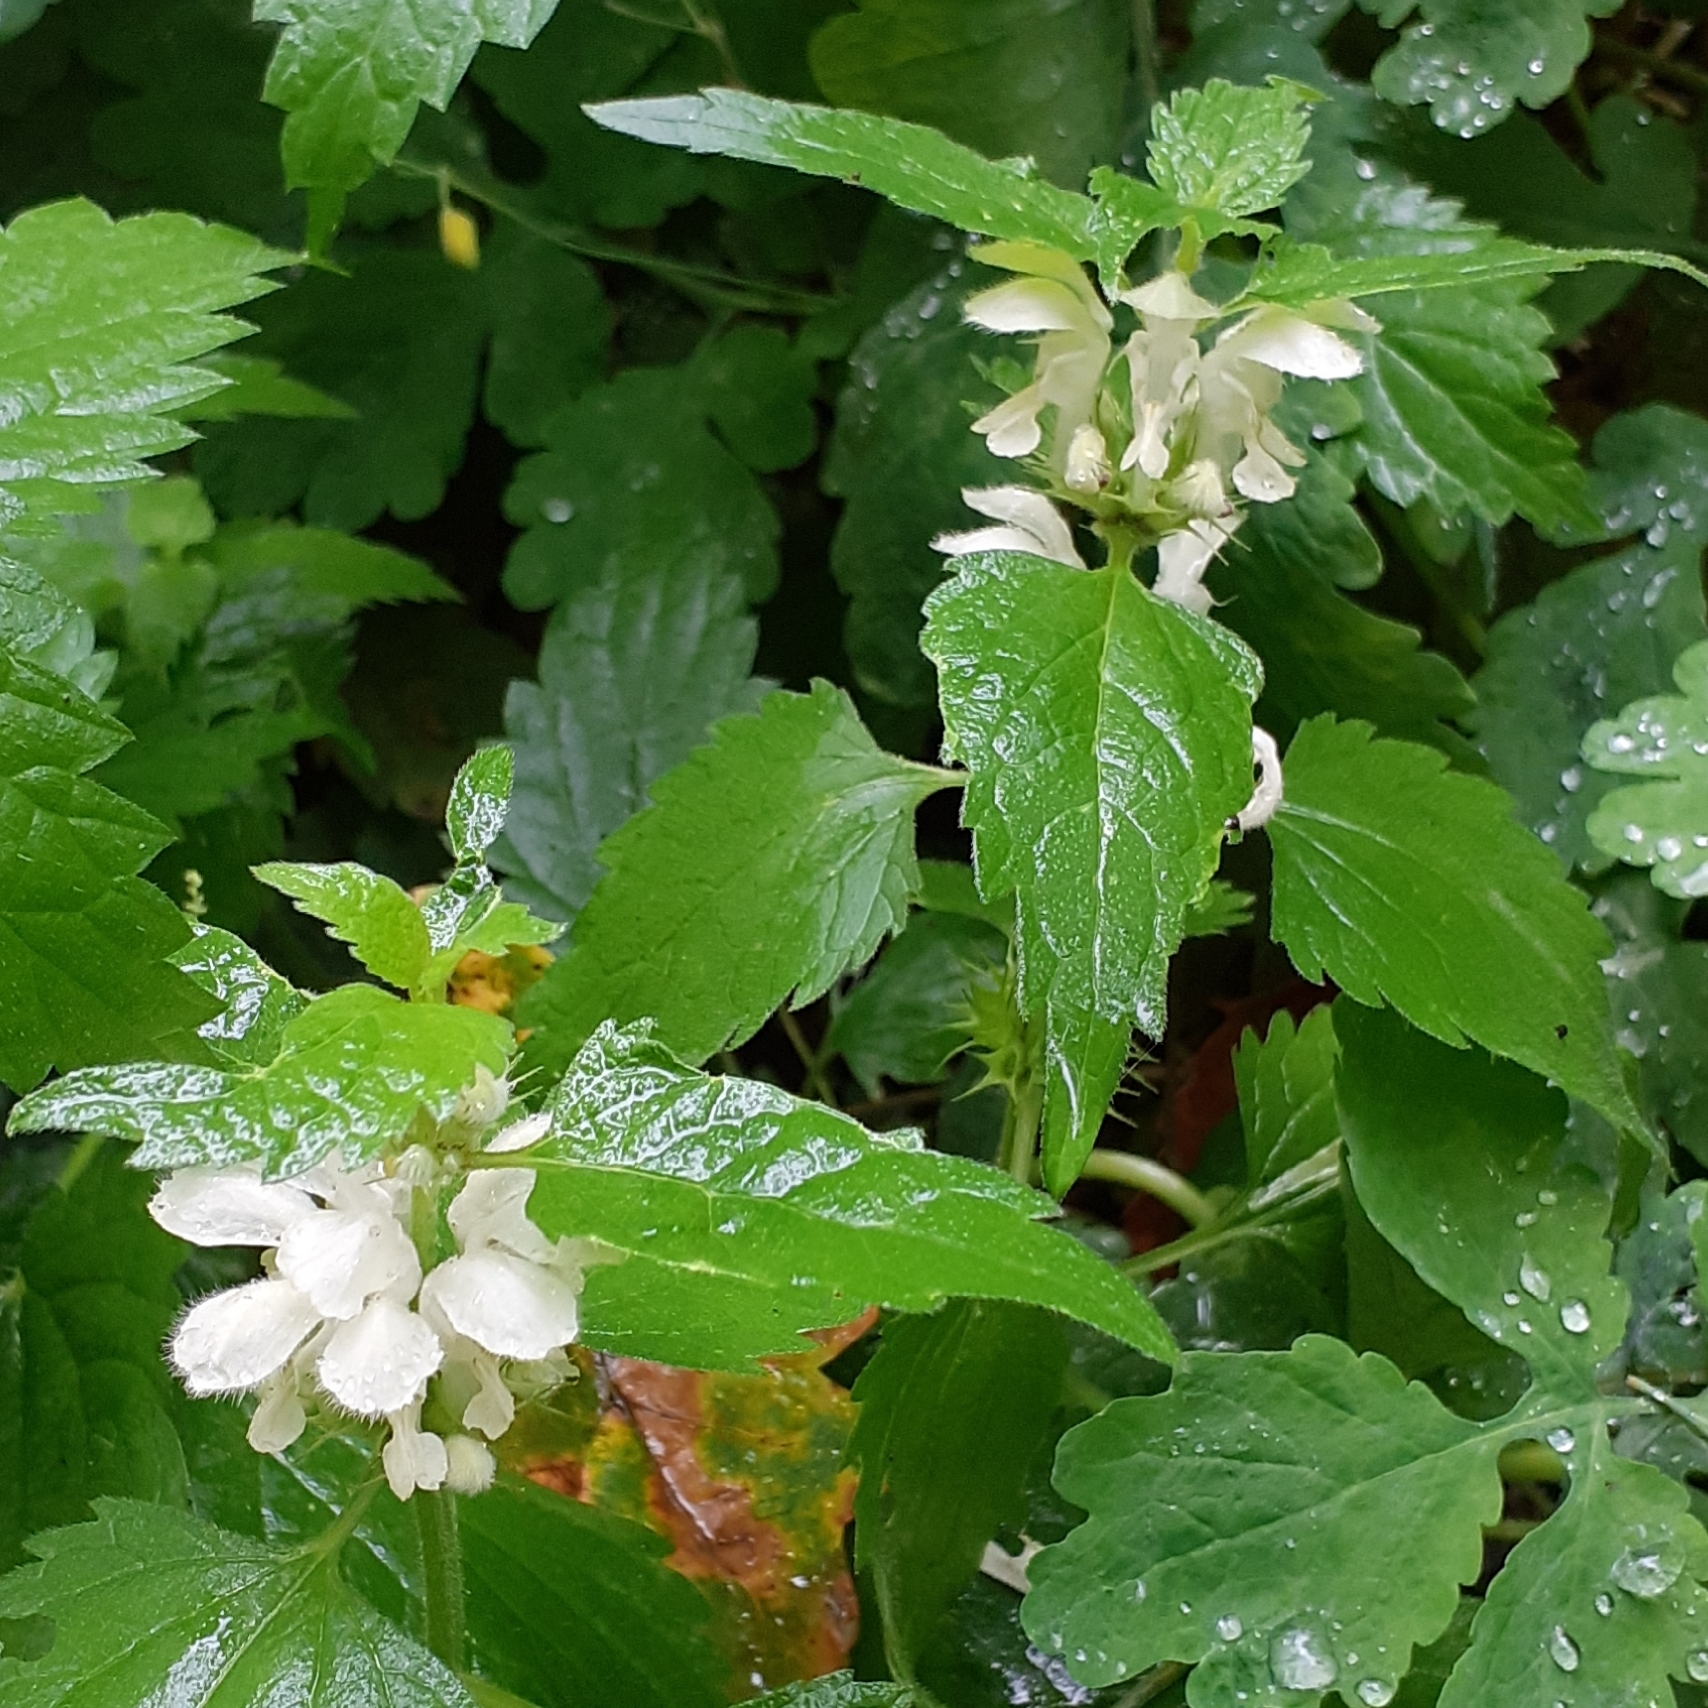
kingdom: Plantae
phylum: Tracheophyta
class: Magnoliopsida
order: Lamiales
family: Lamiaceae
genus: Lamium
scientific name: Lamium album
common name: White dead-nettle
